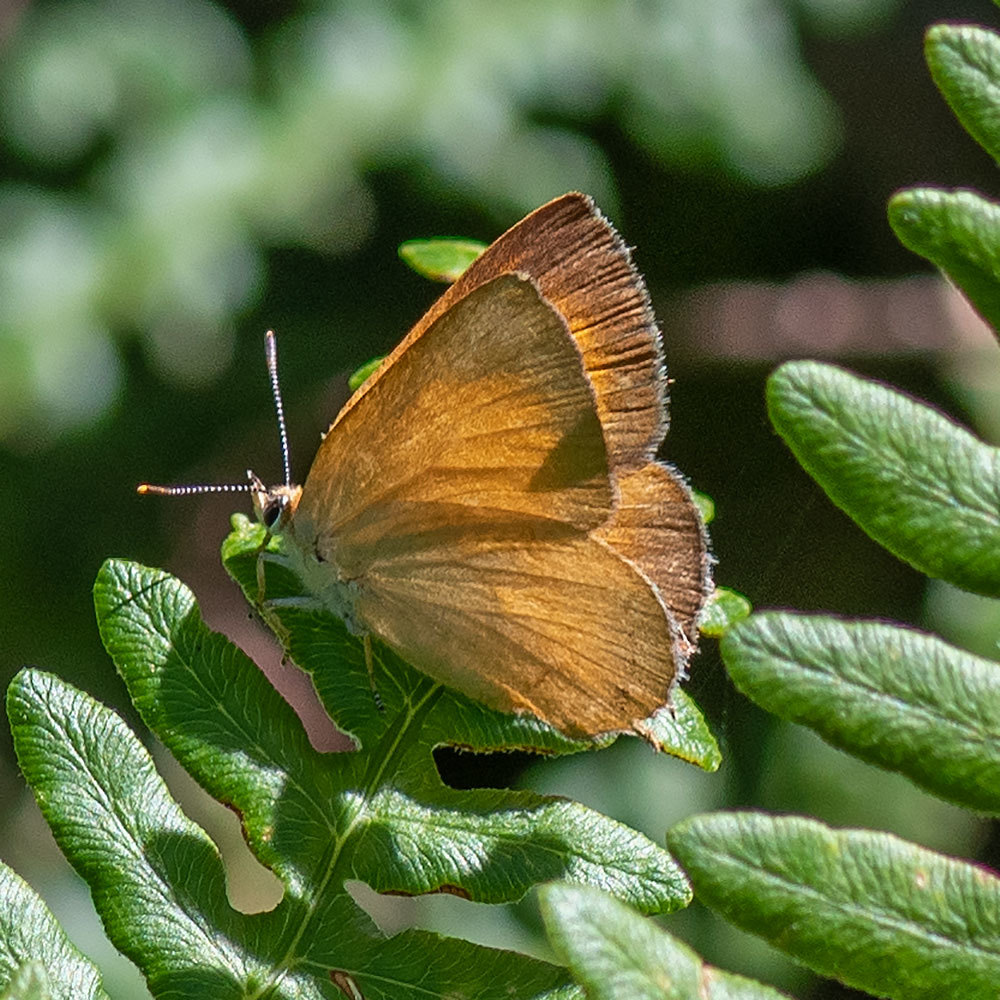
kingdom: Animalia
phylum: Arthropoda
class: Insecta
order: Lepidoptera
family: Lycaenidae
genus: Habrodais
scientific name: Habrodais grunus
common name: Golden hairstreak
